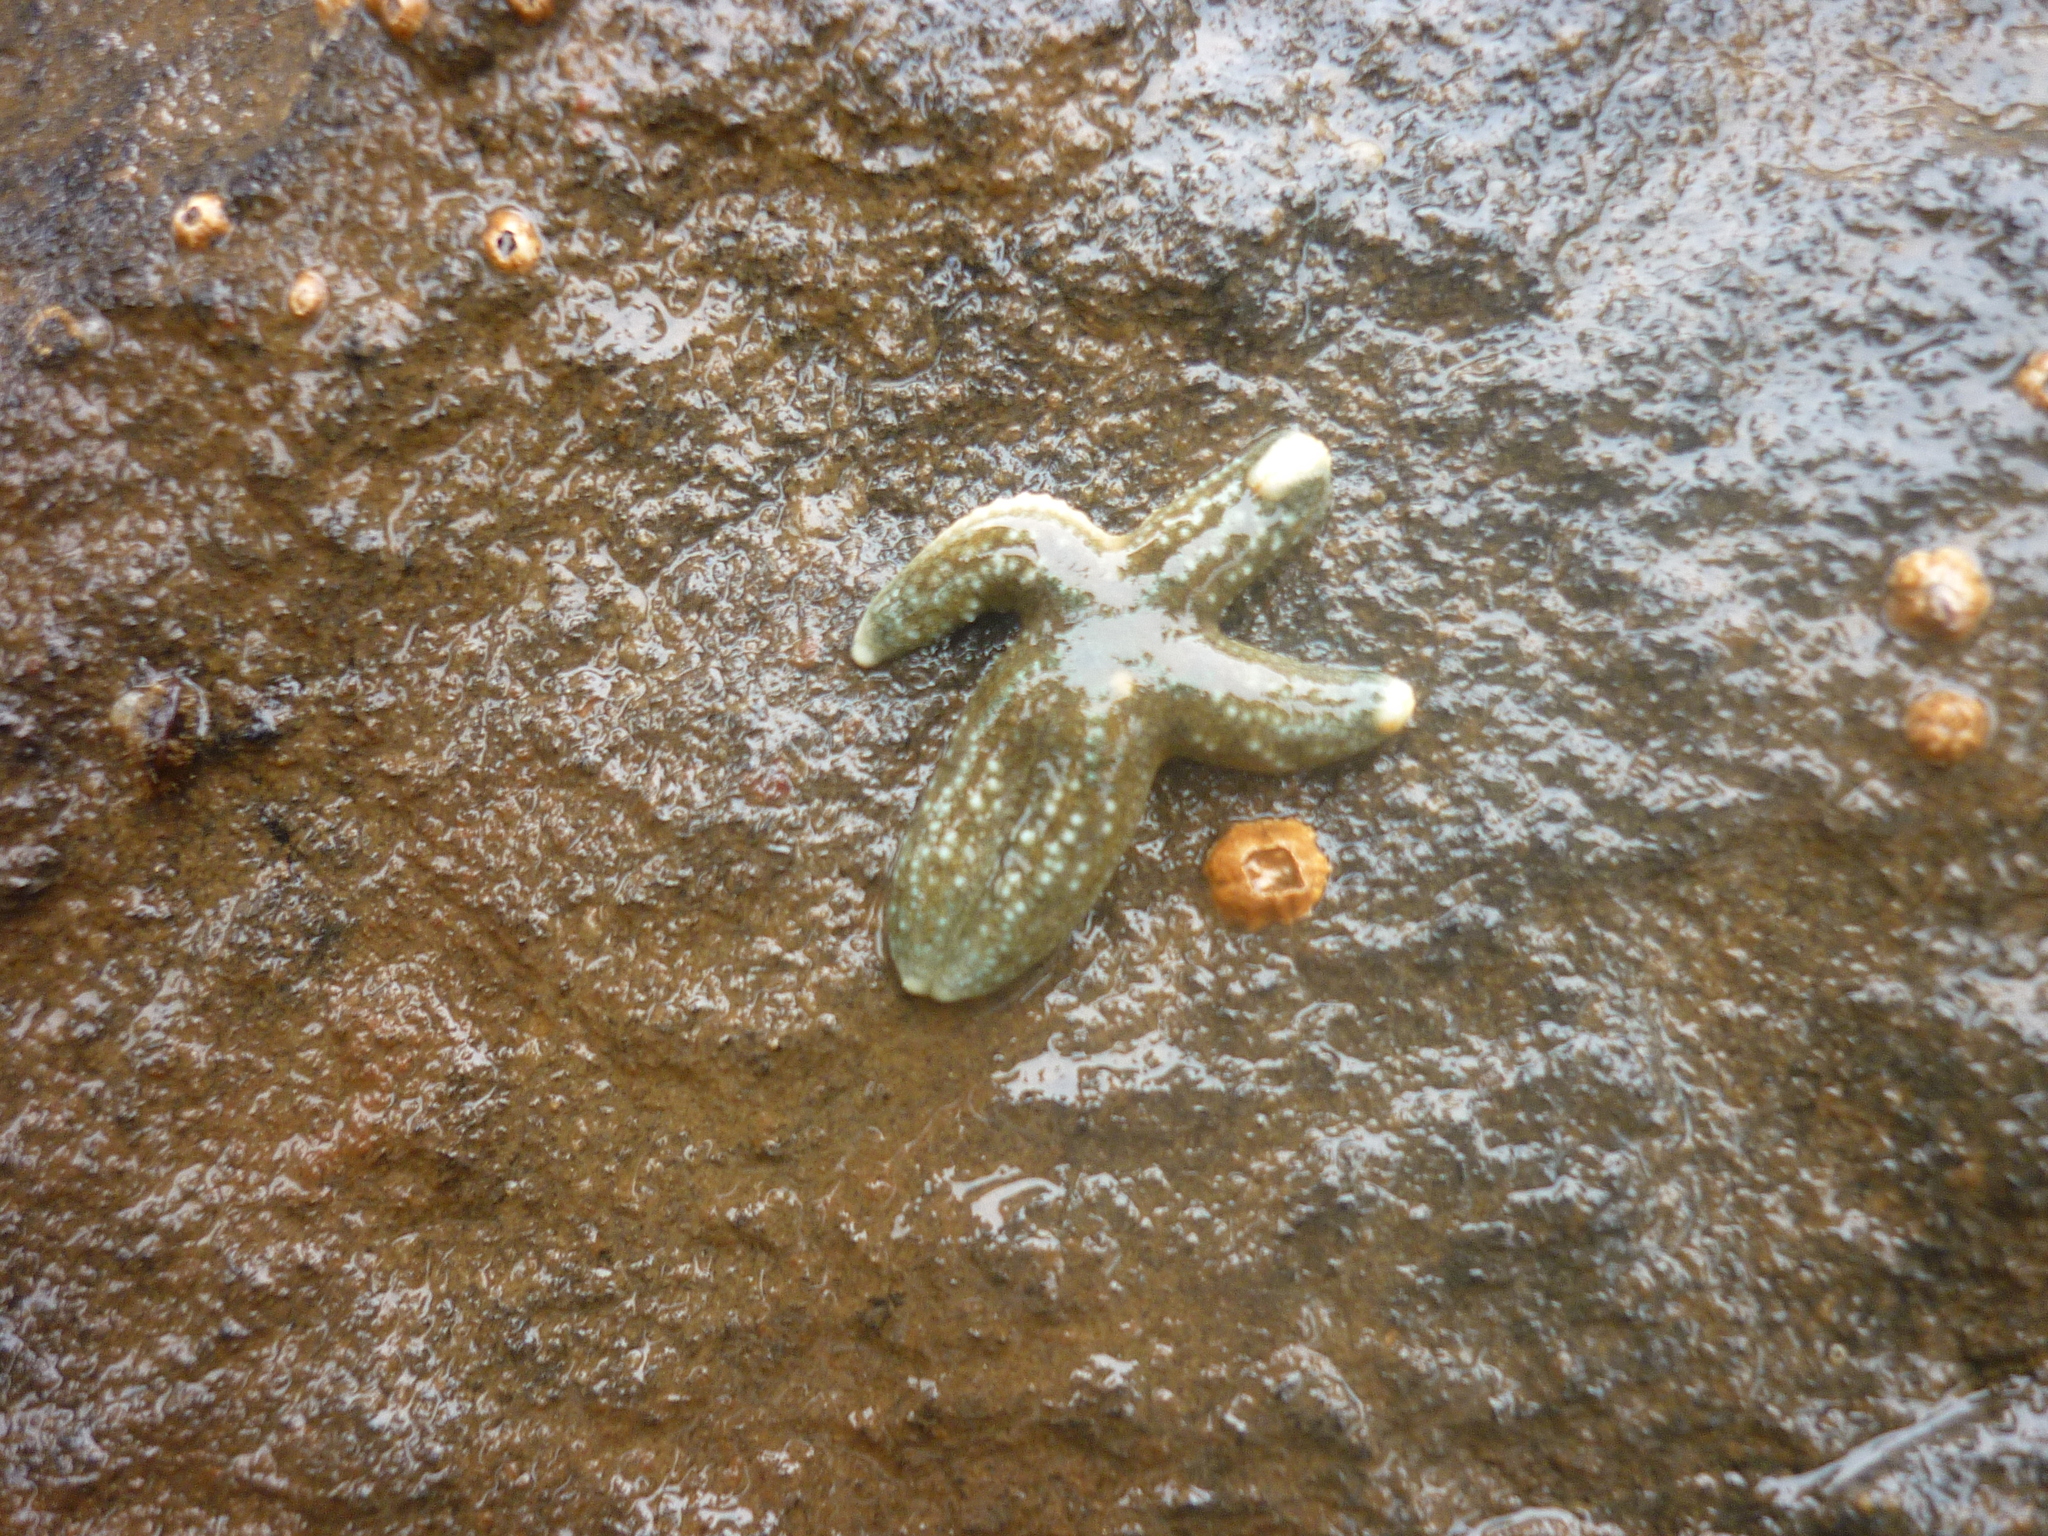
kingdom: Animalia
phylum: Echinodermata
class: Asteroidea
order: Forcipulatida
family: Asteriidae
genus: Evasterias
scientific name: Evasterias troschelii
